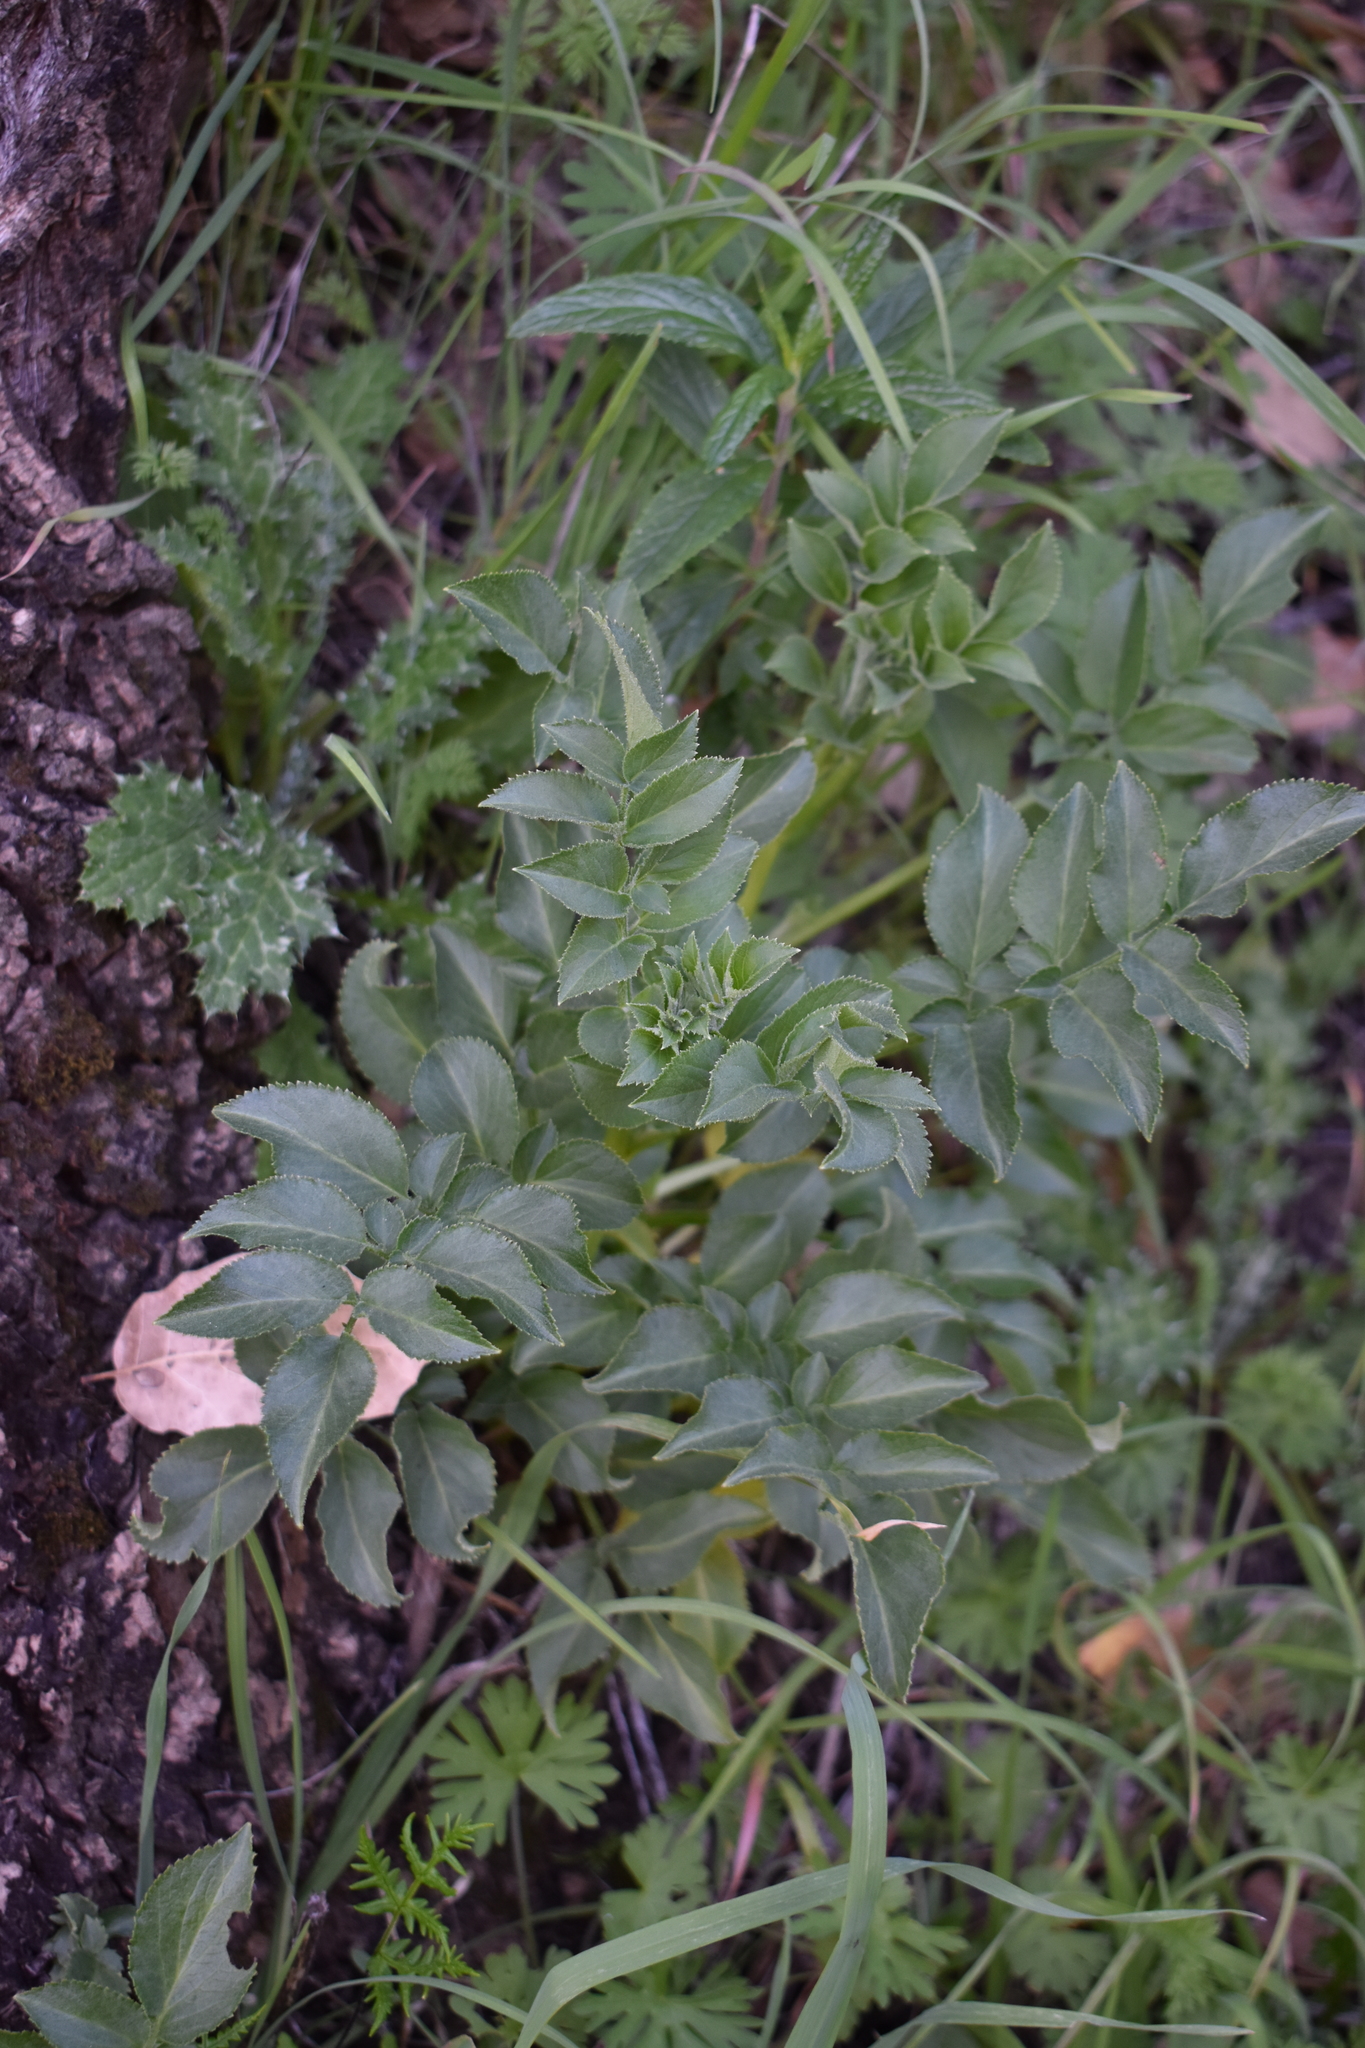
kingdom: Plantae
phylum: Tracheophyta
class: Magnoliopsida
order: Dipsacales
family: Viburnaceae
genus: Sambucus
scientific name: Sambucus cerulea
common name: Blue elder
